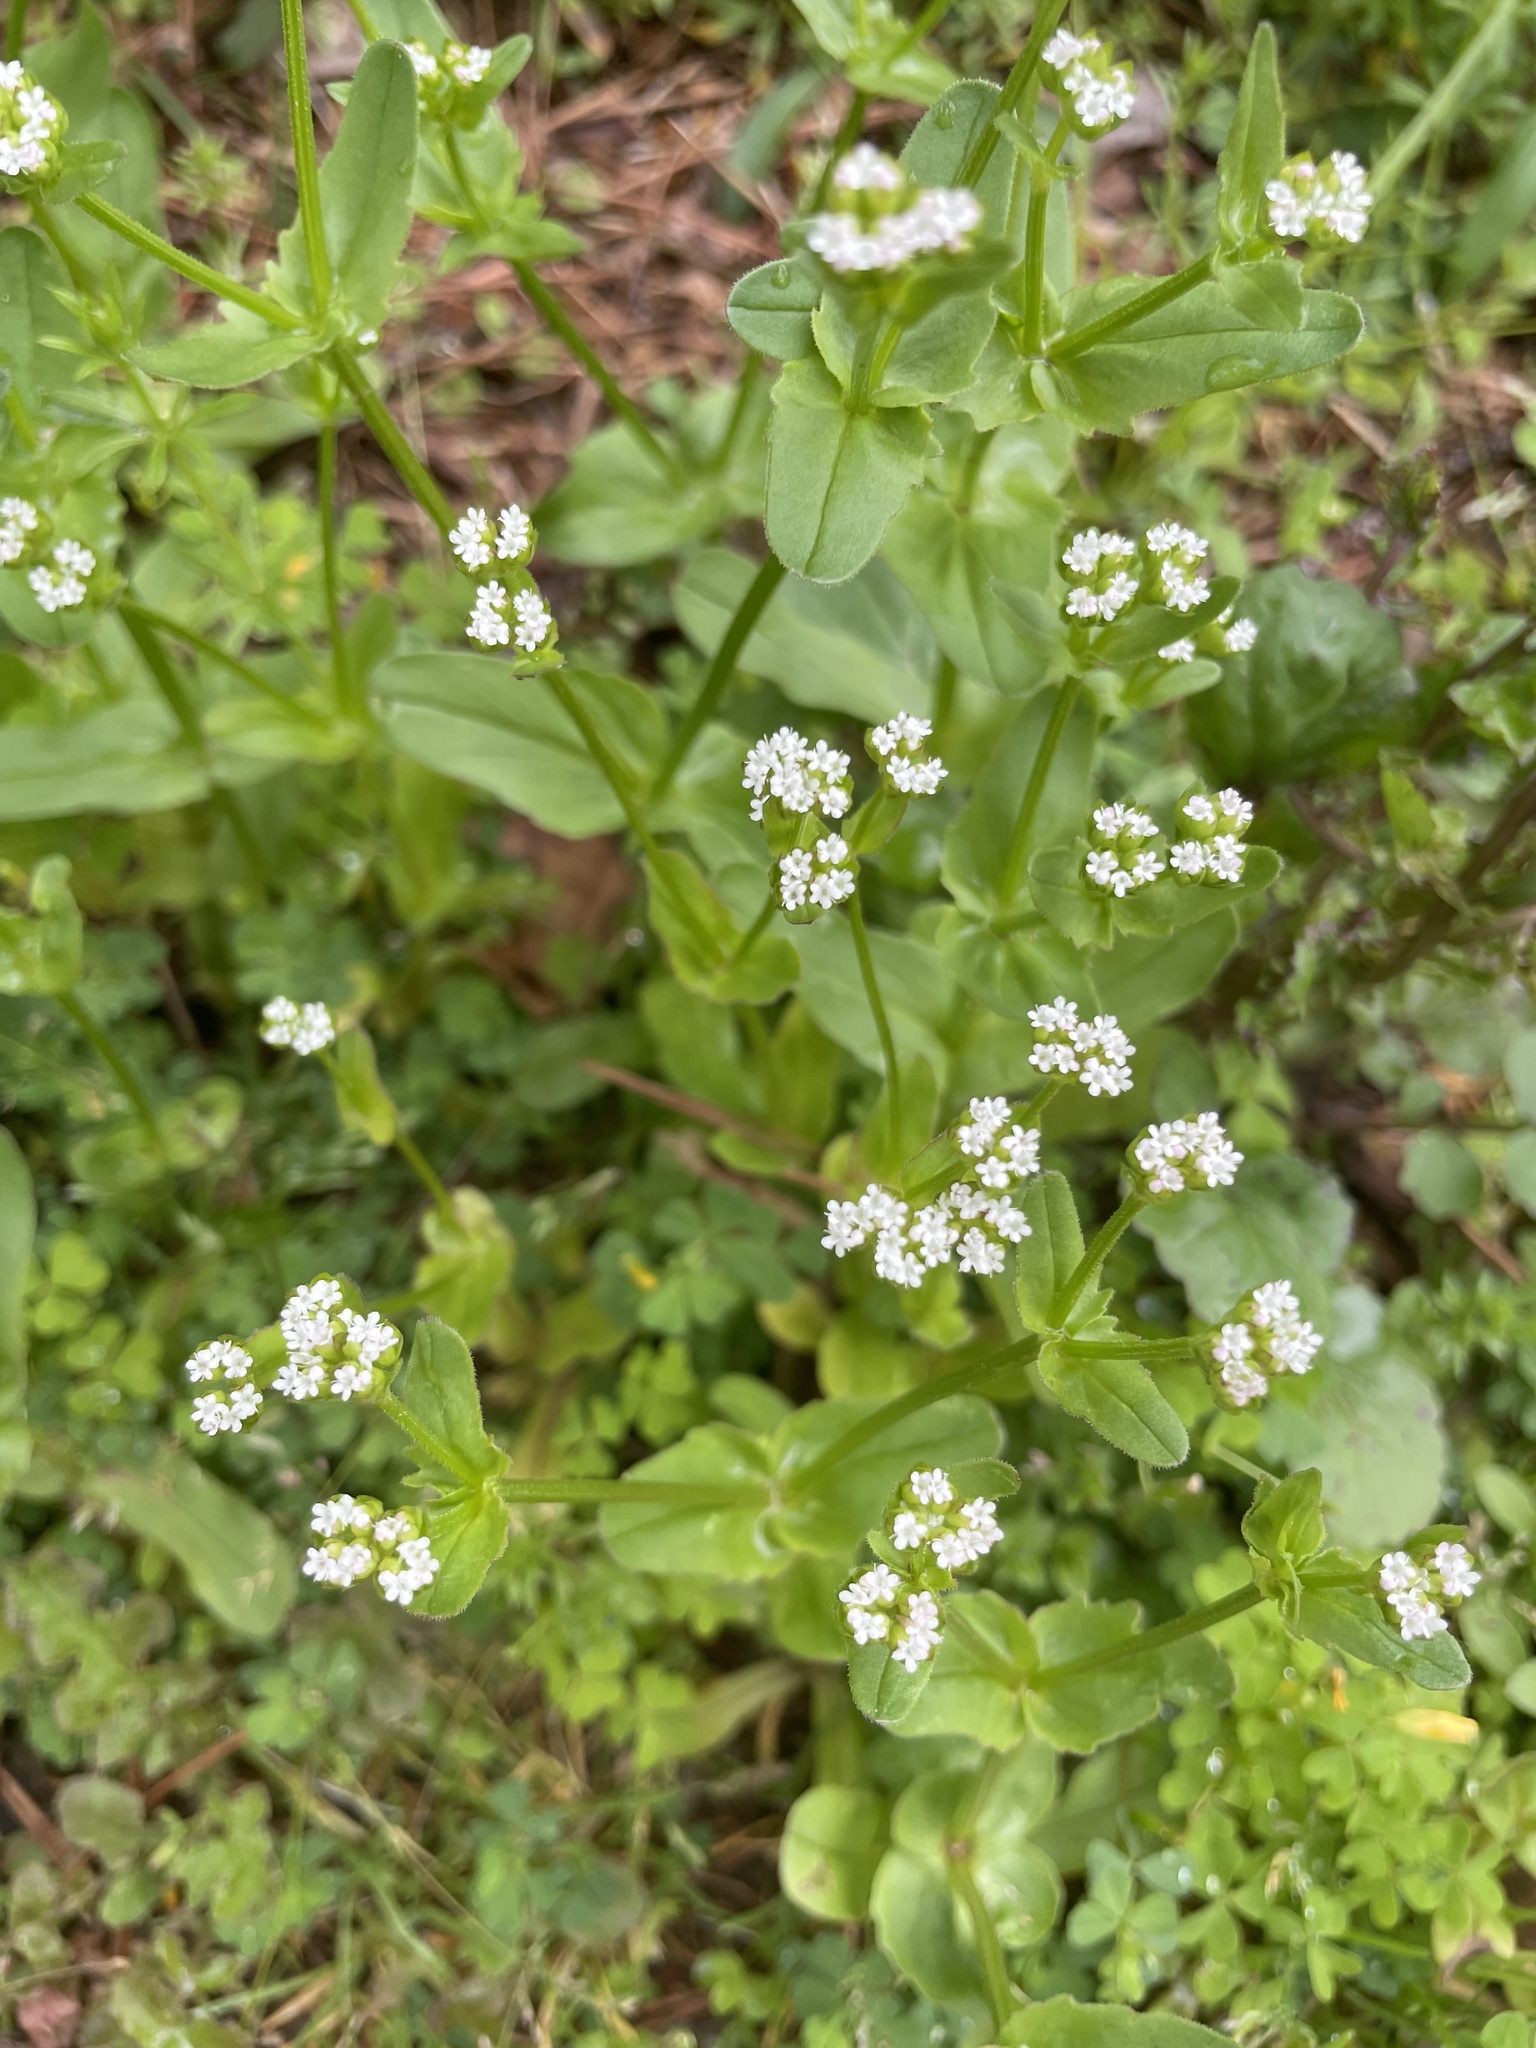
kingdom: Plantae
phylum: Tracheophyta
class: Magnoliopsida
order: Dipsacales
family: Caprifoliaceae
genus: Valerianella
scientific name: Valerianella radiata
